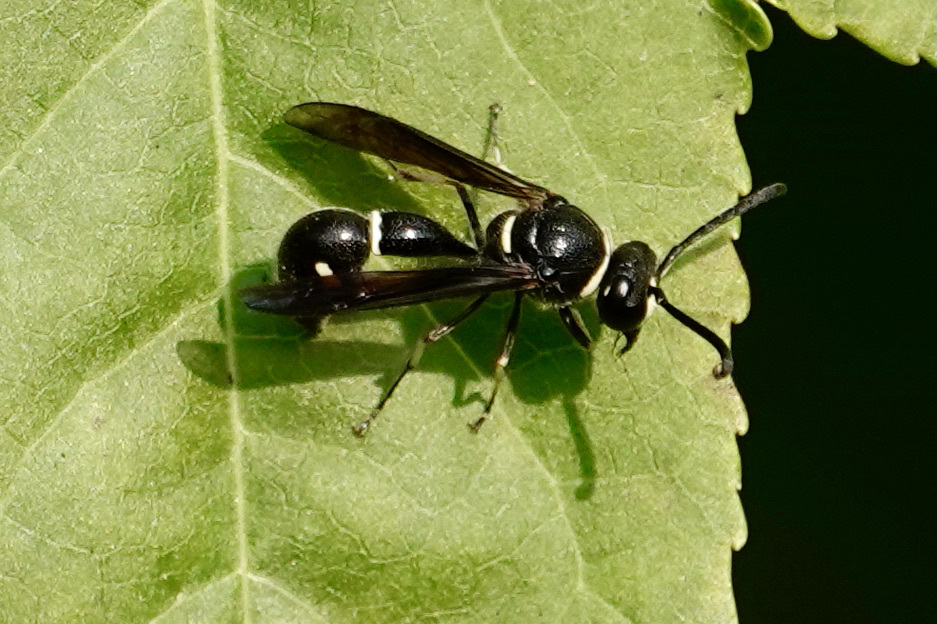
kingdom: Animalia
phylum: Arthropoda
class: Insecta
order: Hymenoptera
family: Vespidae
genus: Eumenes
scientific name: Eumenes fraternus
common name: Fraternal potter wasp
